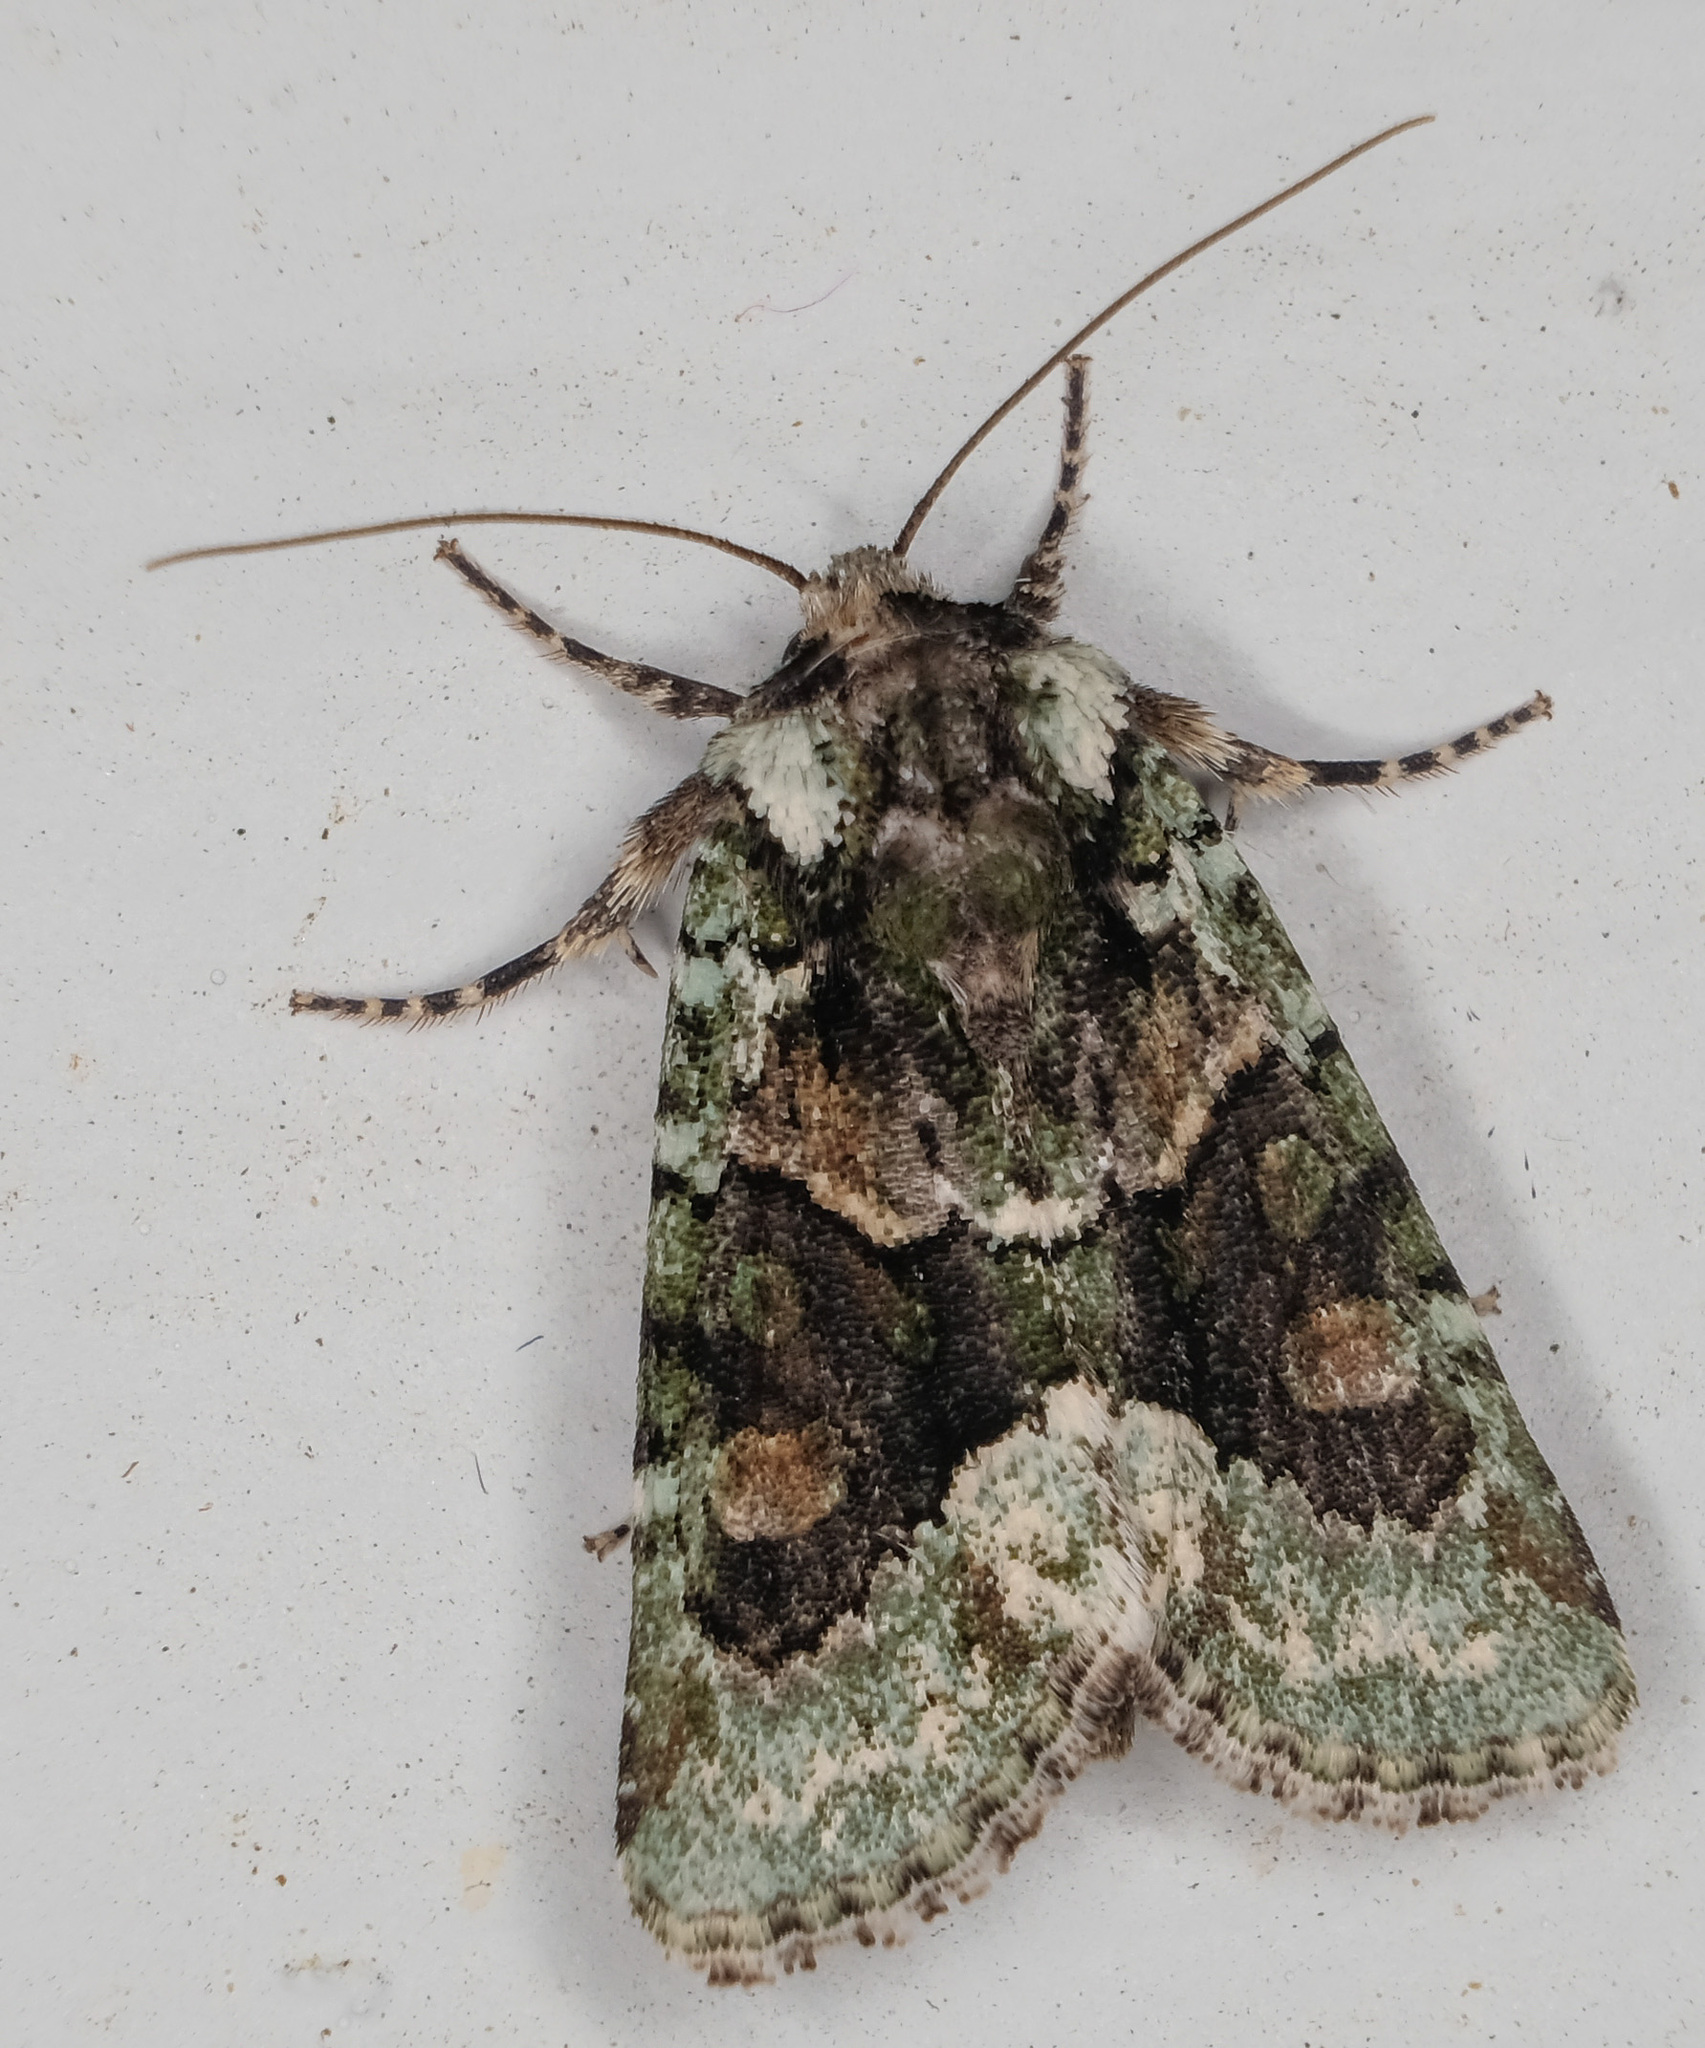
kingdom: Animalia
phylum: Arthropoda
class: Insecta
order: Lepidoptera
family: Noctuidae
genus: Lacinipolia
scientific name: Lacinipolia explicata
